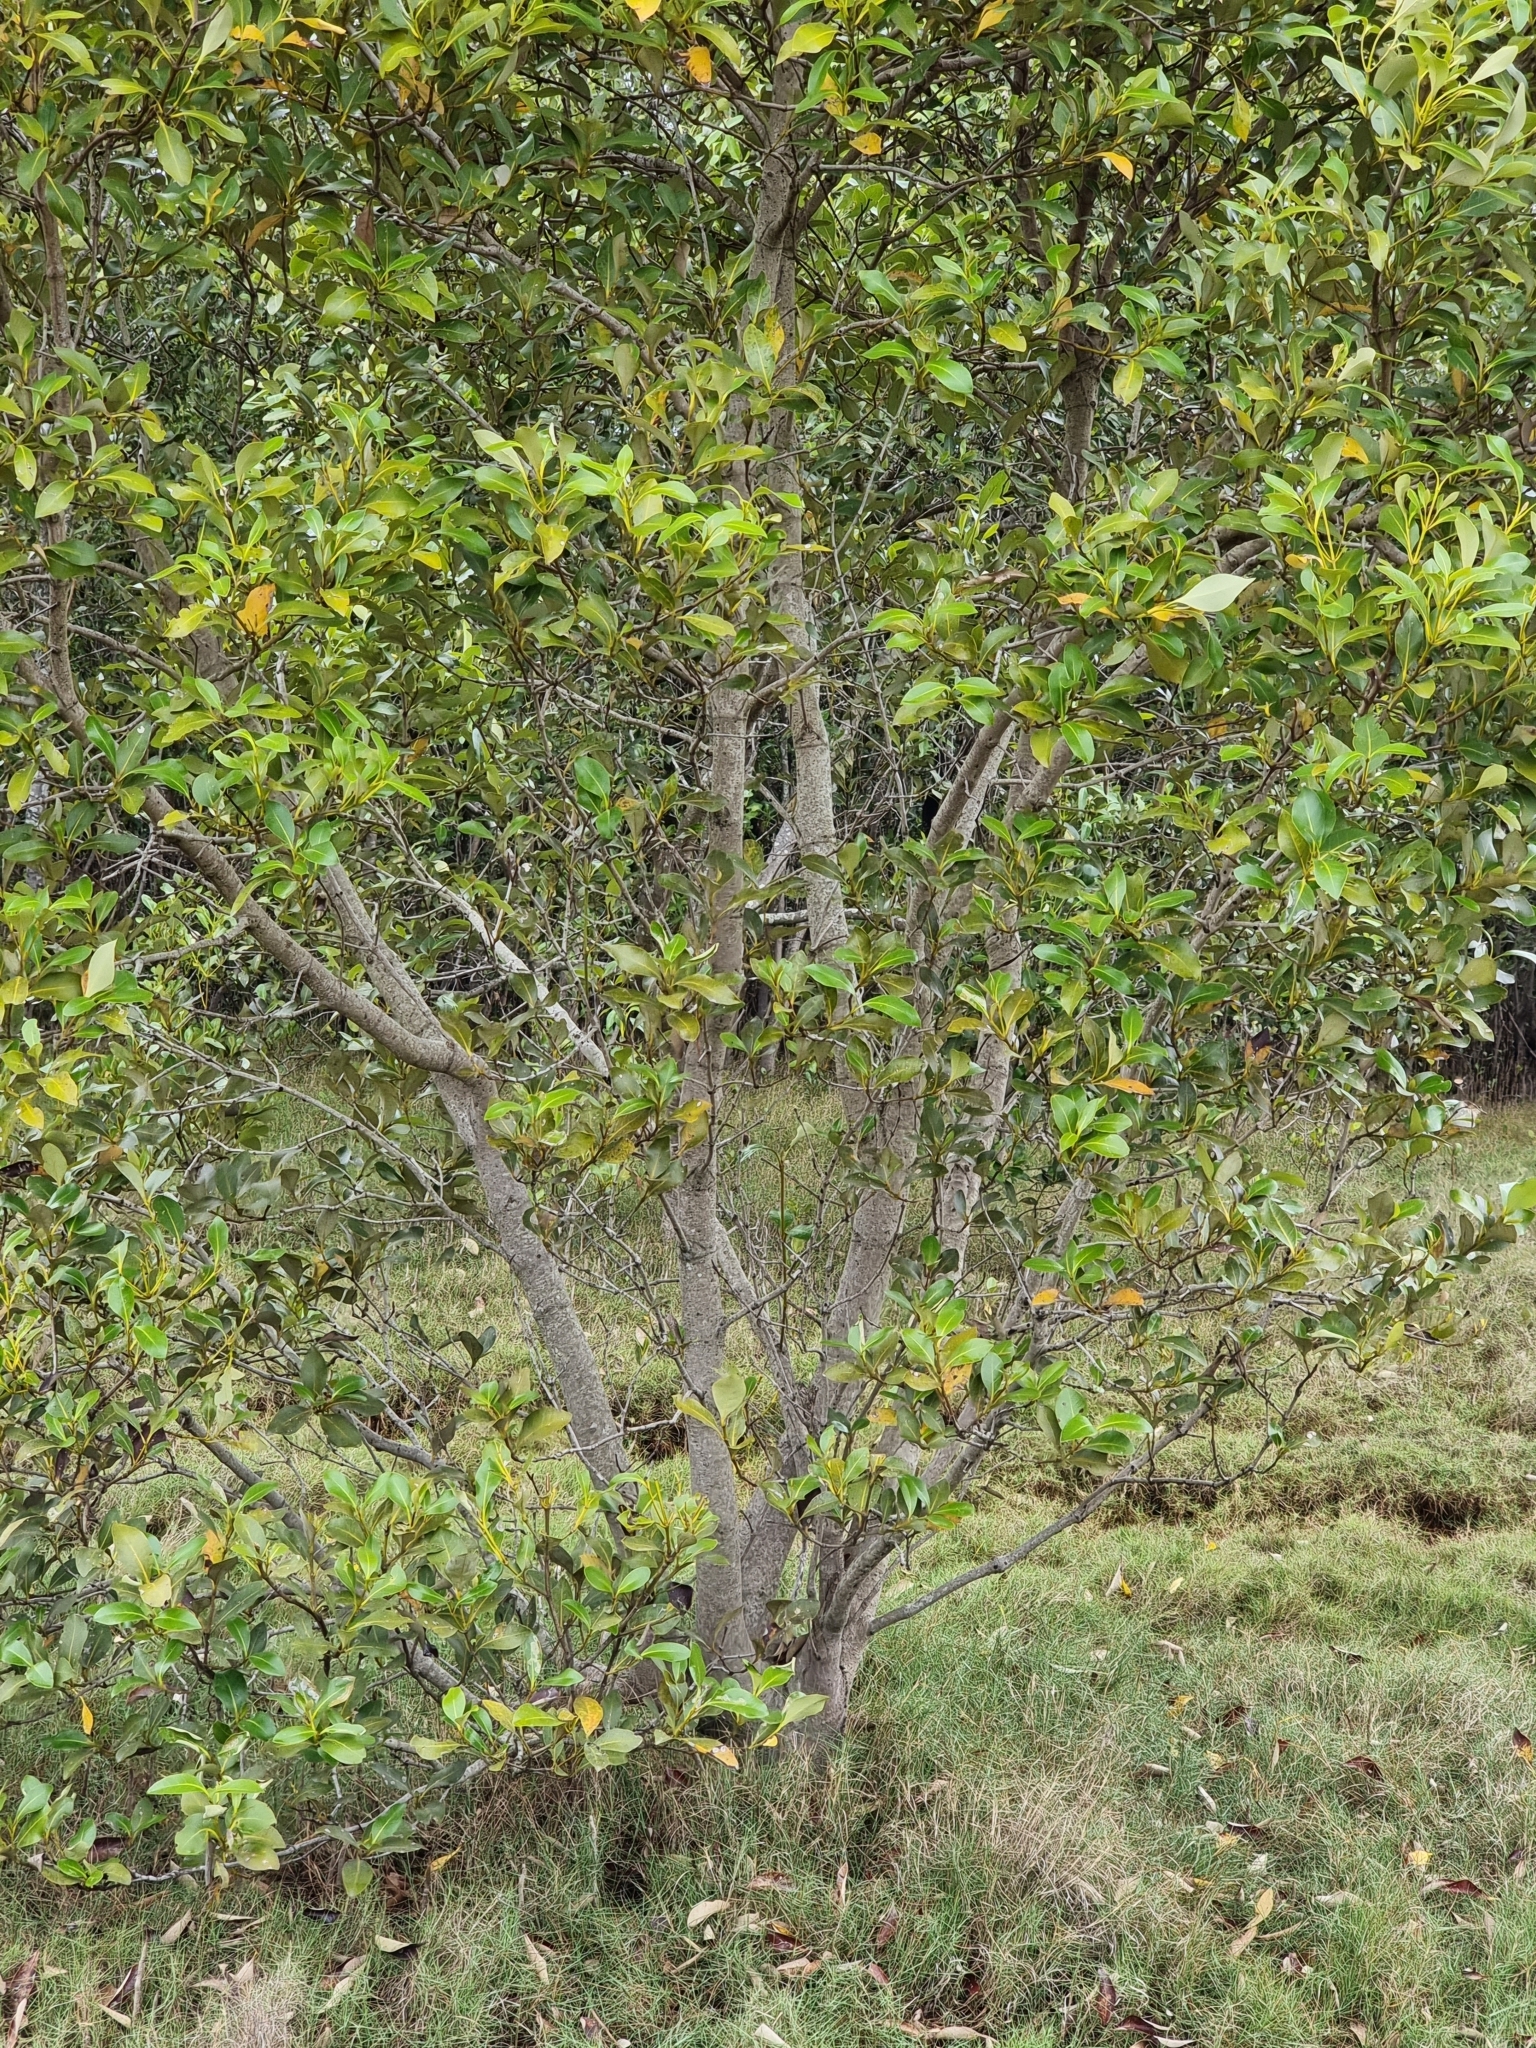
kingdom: Plantae
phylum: Tracheophyta
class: Magnoliopsida
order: Lamiales
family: Acanthaceae
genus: Avicennia
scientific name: Avicennia marina
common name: Gray mangrove
